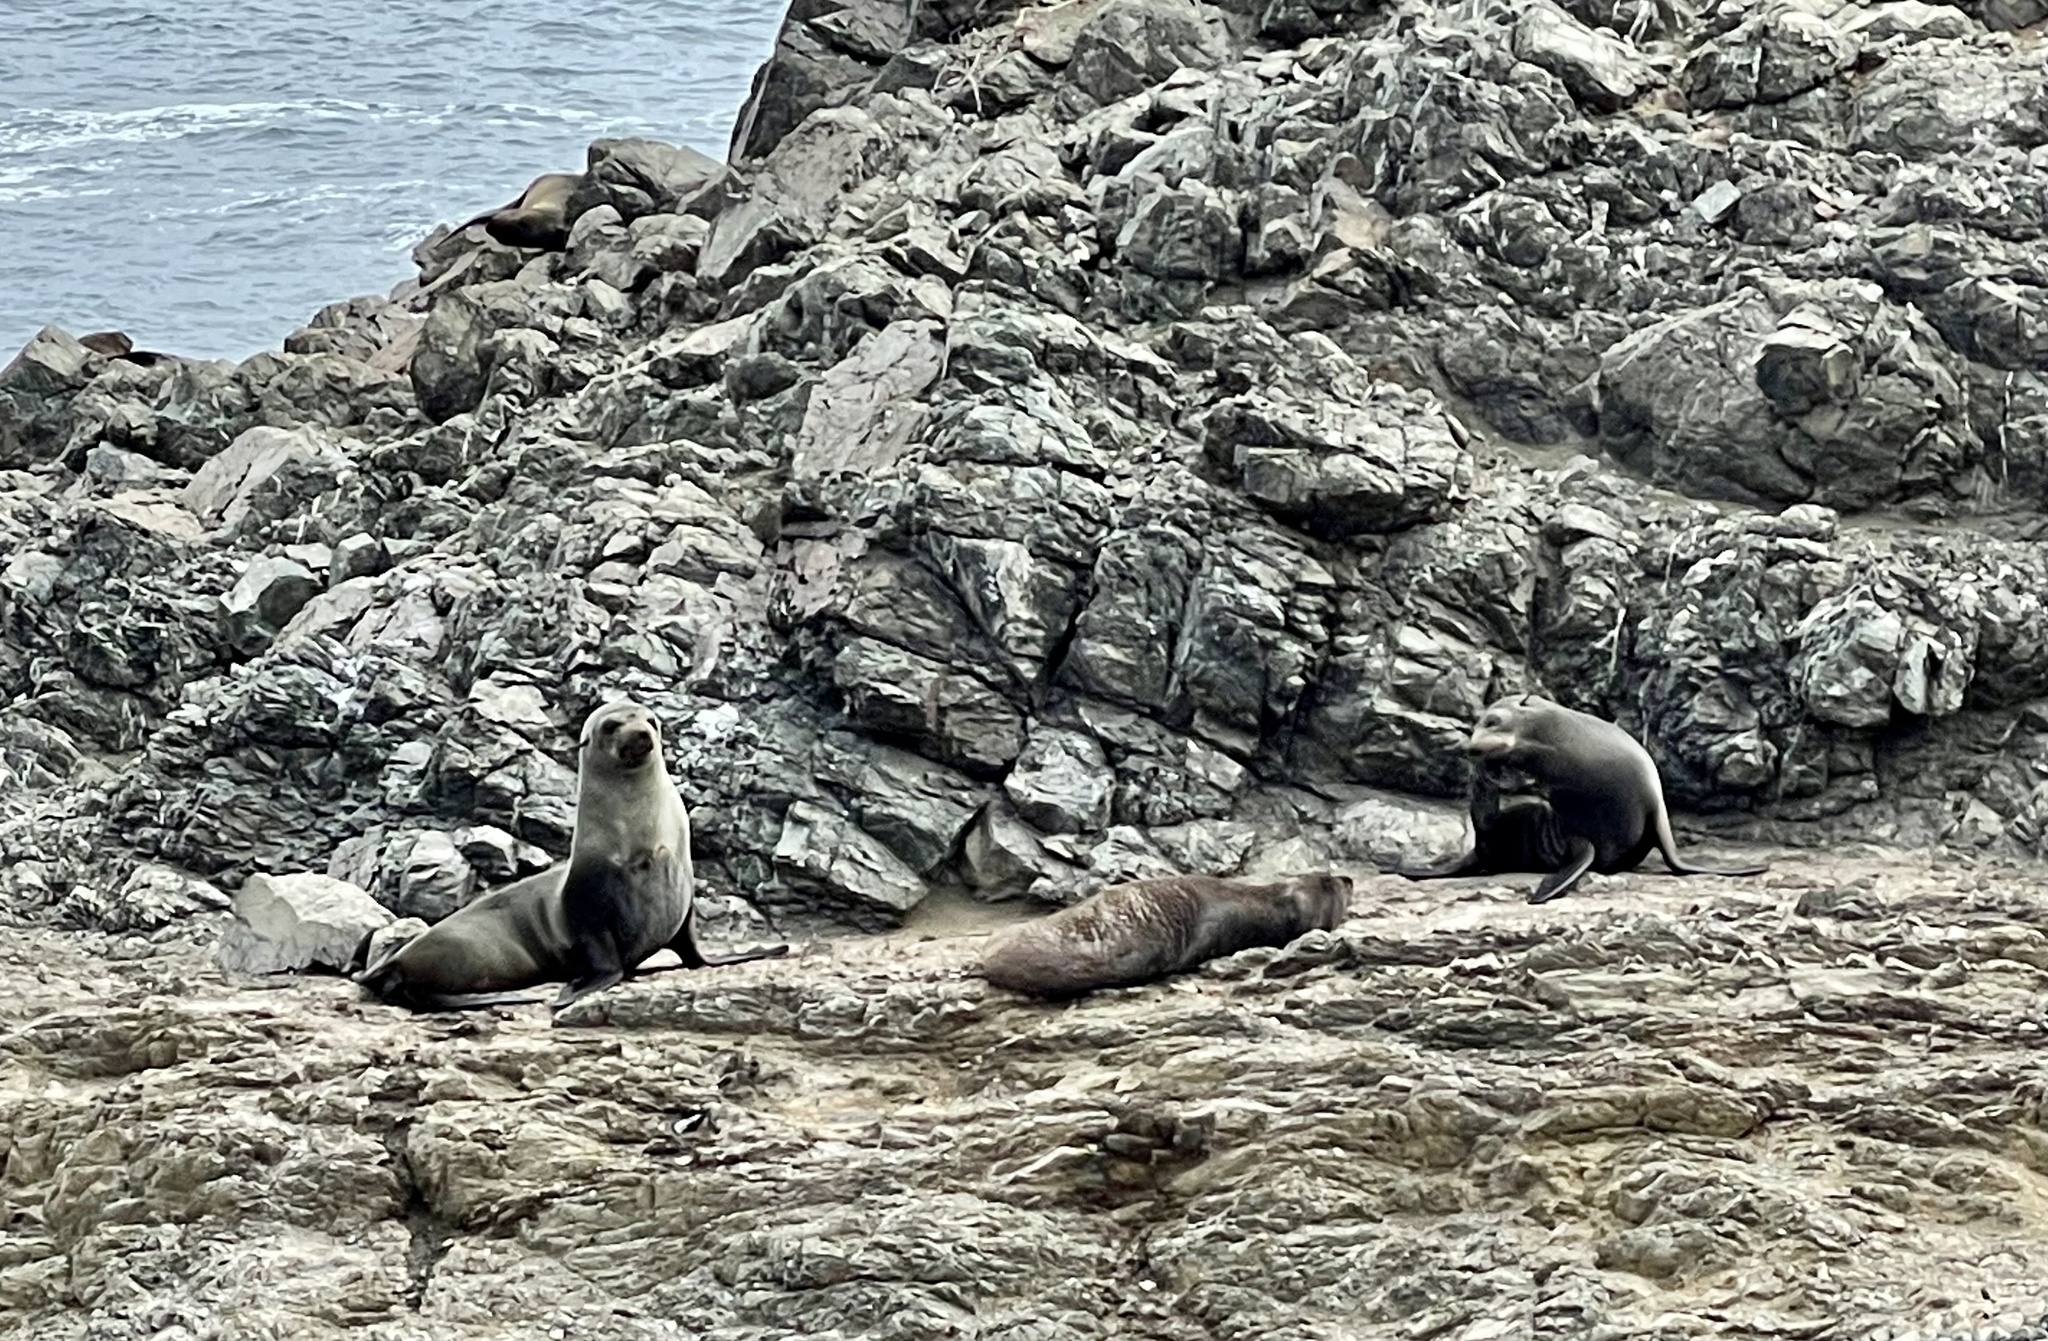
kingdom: Animalia
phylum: Chordata
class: Mammalia
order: Carnivora
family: Otariidae
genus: Arctocephalus
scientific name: Arctocephalus philippii
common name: Juan fernández fur seal
